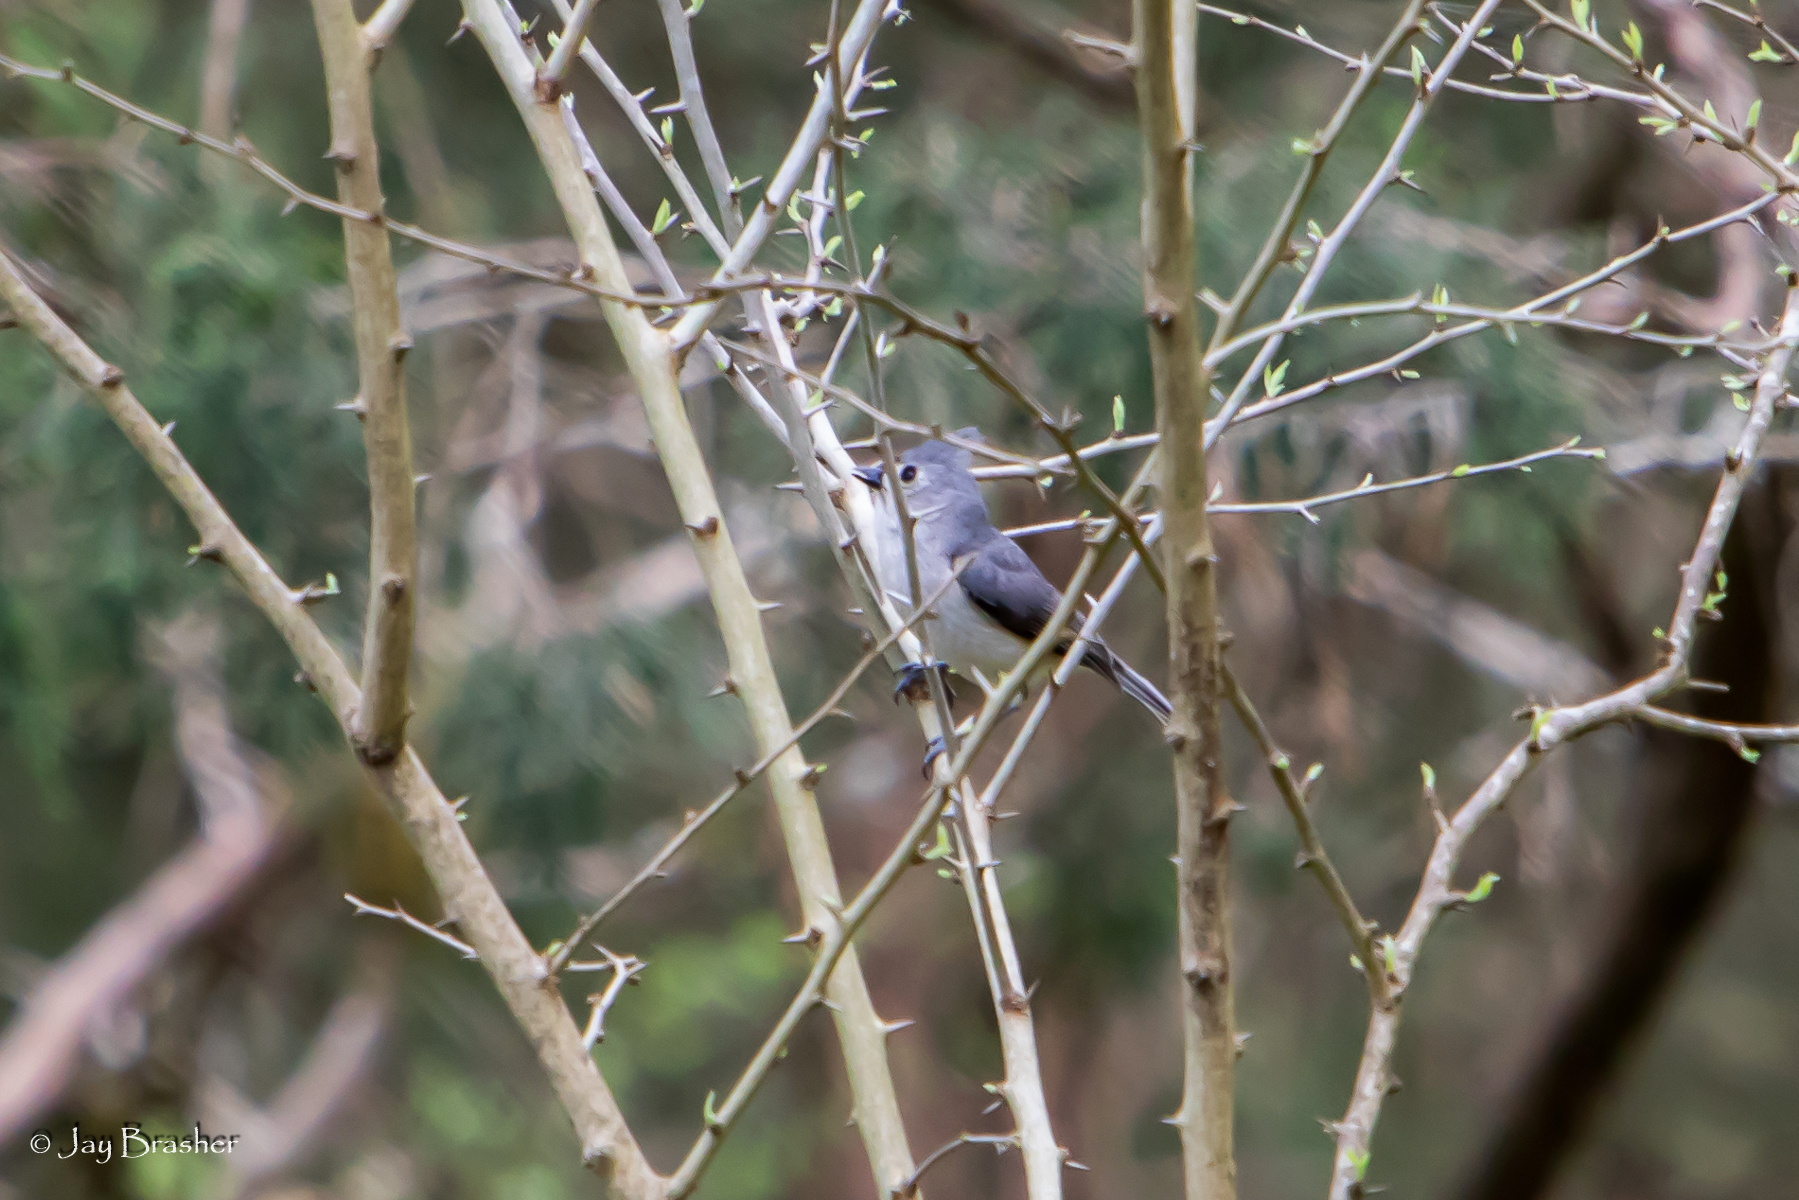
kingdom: Animalia
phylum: Chordata
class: Aves
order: Passeriformes
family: Paridae
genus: Baeolophus
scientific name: Baeolophus bicolor
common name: Tufted titmouse
